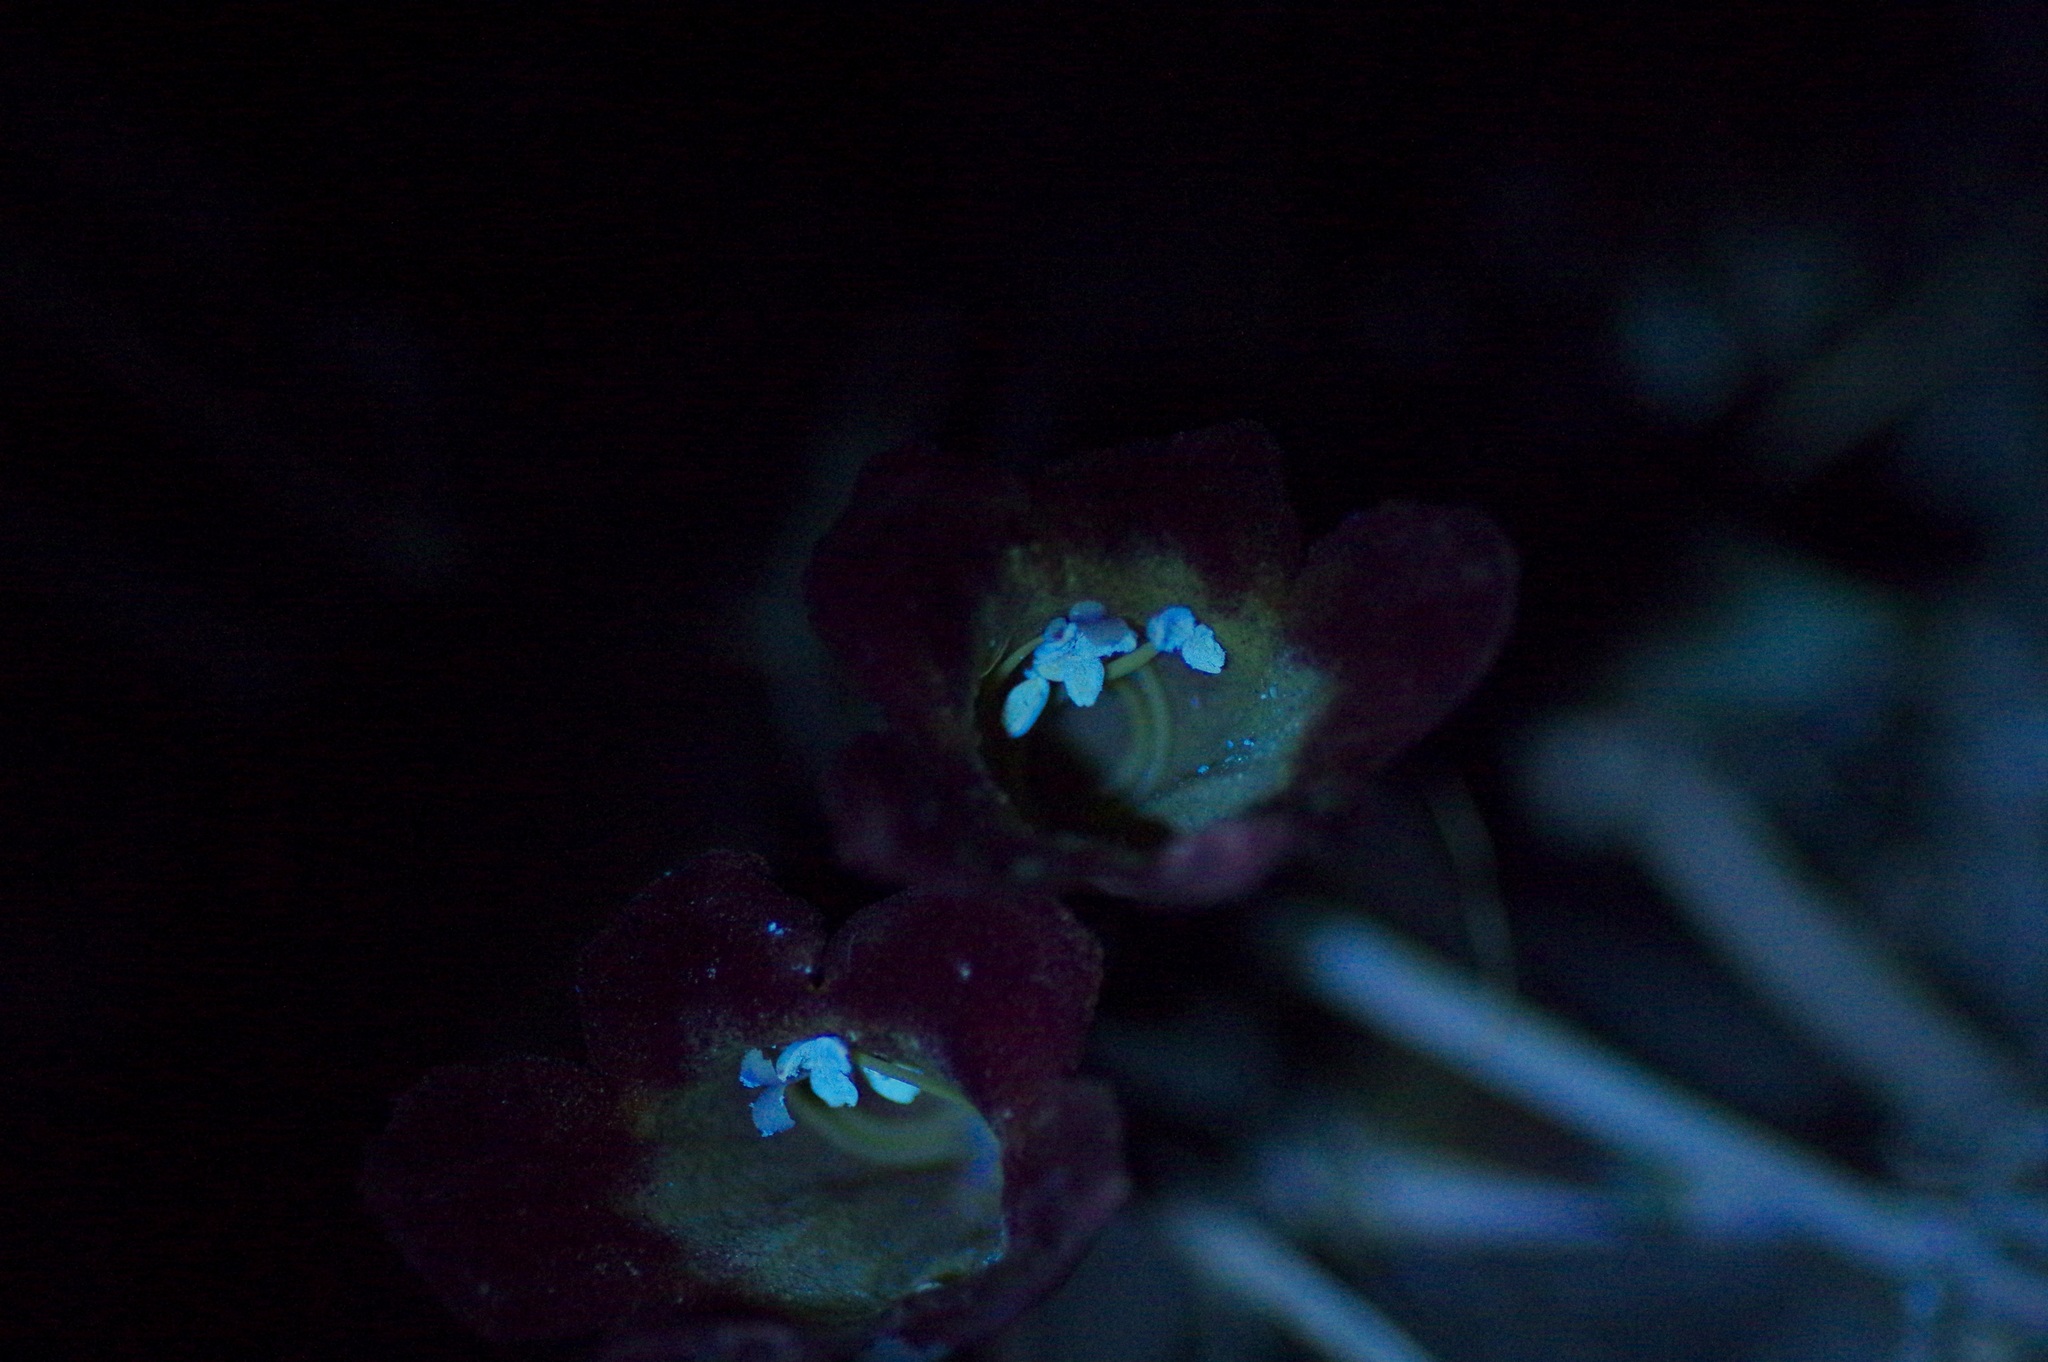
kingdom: Plantae
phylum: Tracheophyta
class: Magnoliopsida
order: Lamiales
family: Bignoniaceae
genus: Bignonia
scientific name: Bignonia capreolata
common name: Crossvine
